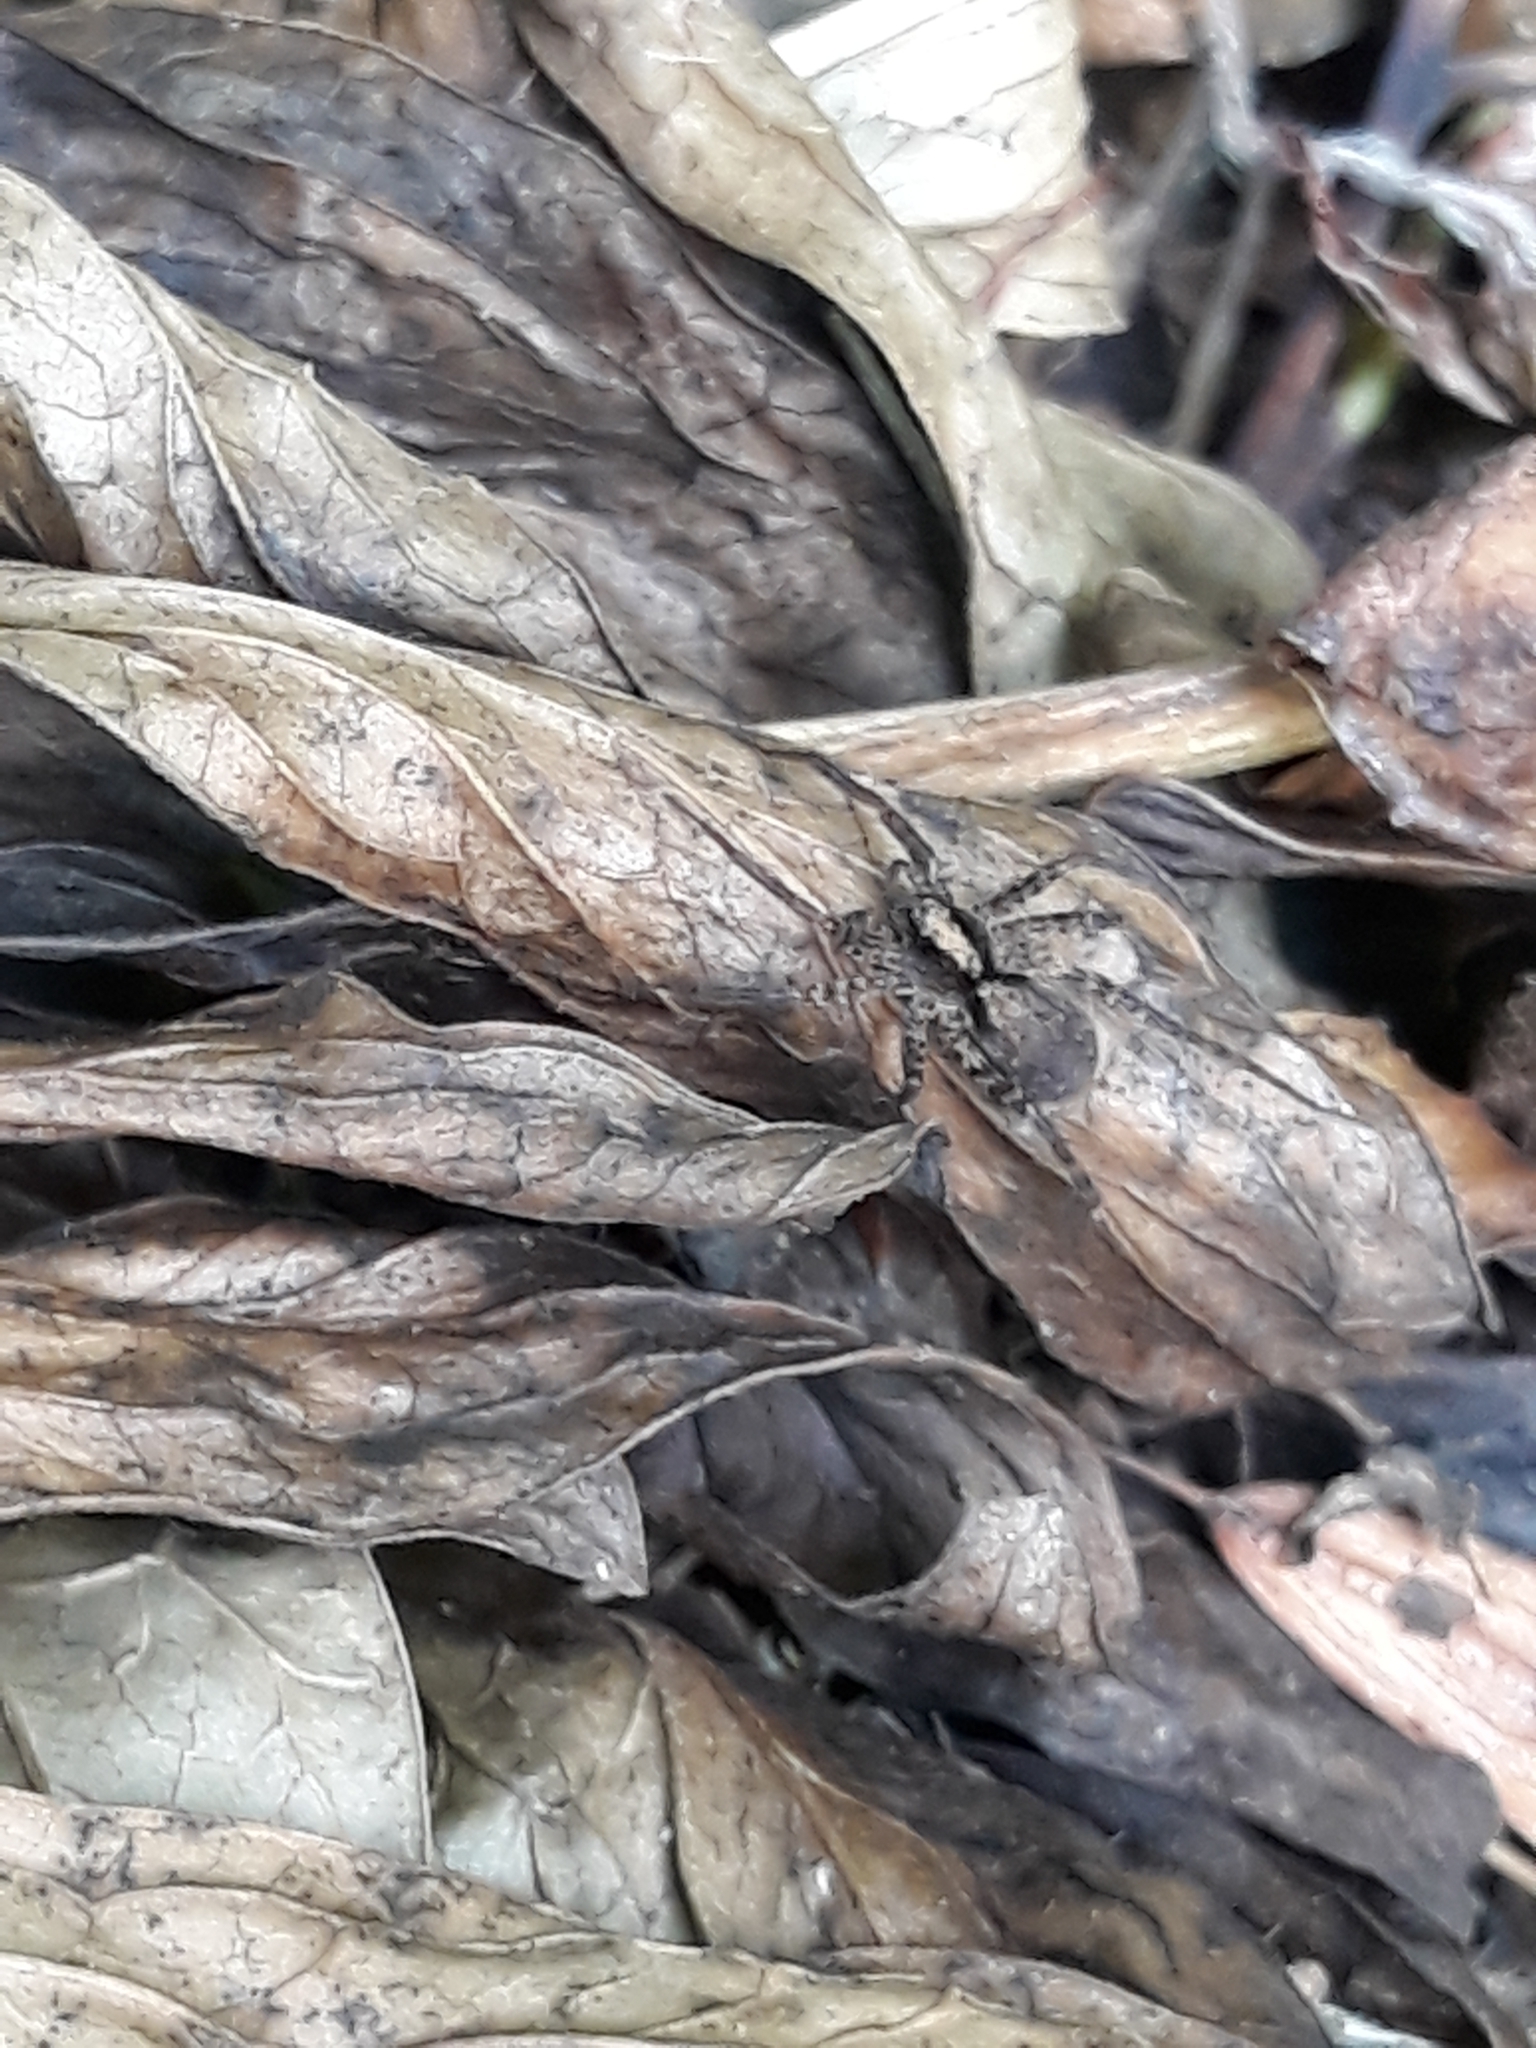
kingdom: Animalia
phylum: Arthropoda
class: Arachnida
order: Araneae
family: Lycosidae
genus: Pardosa
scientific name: Pardosa
